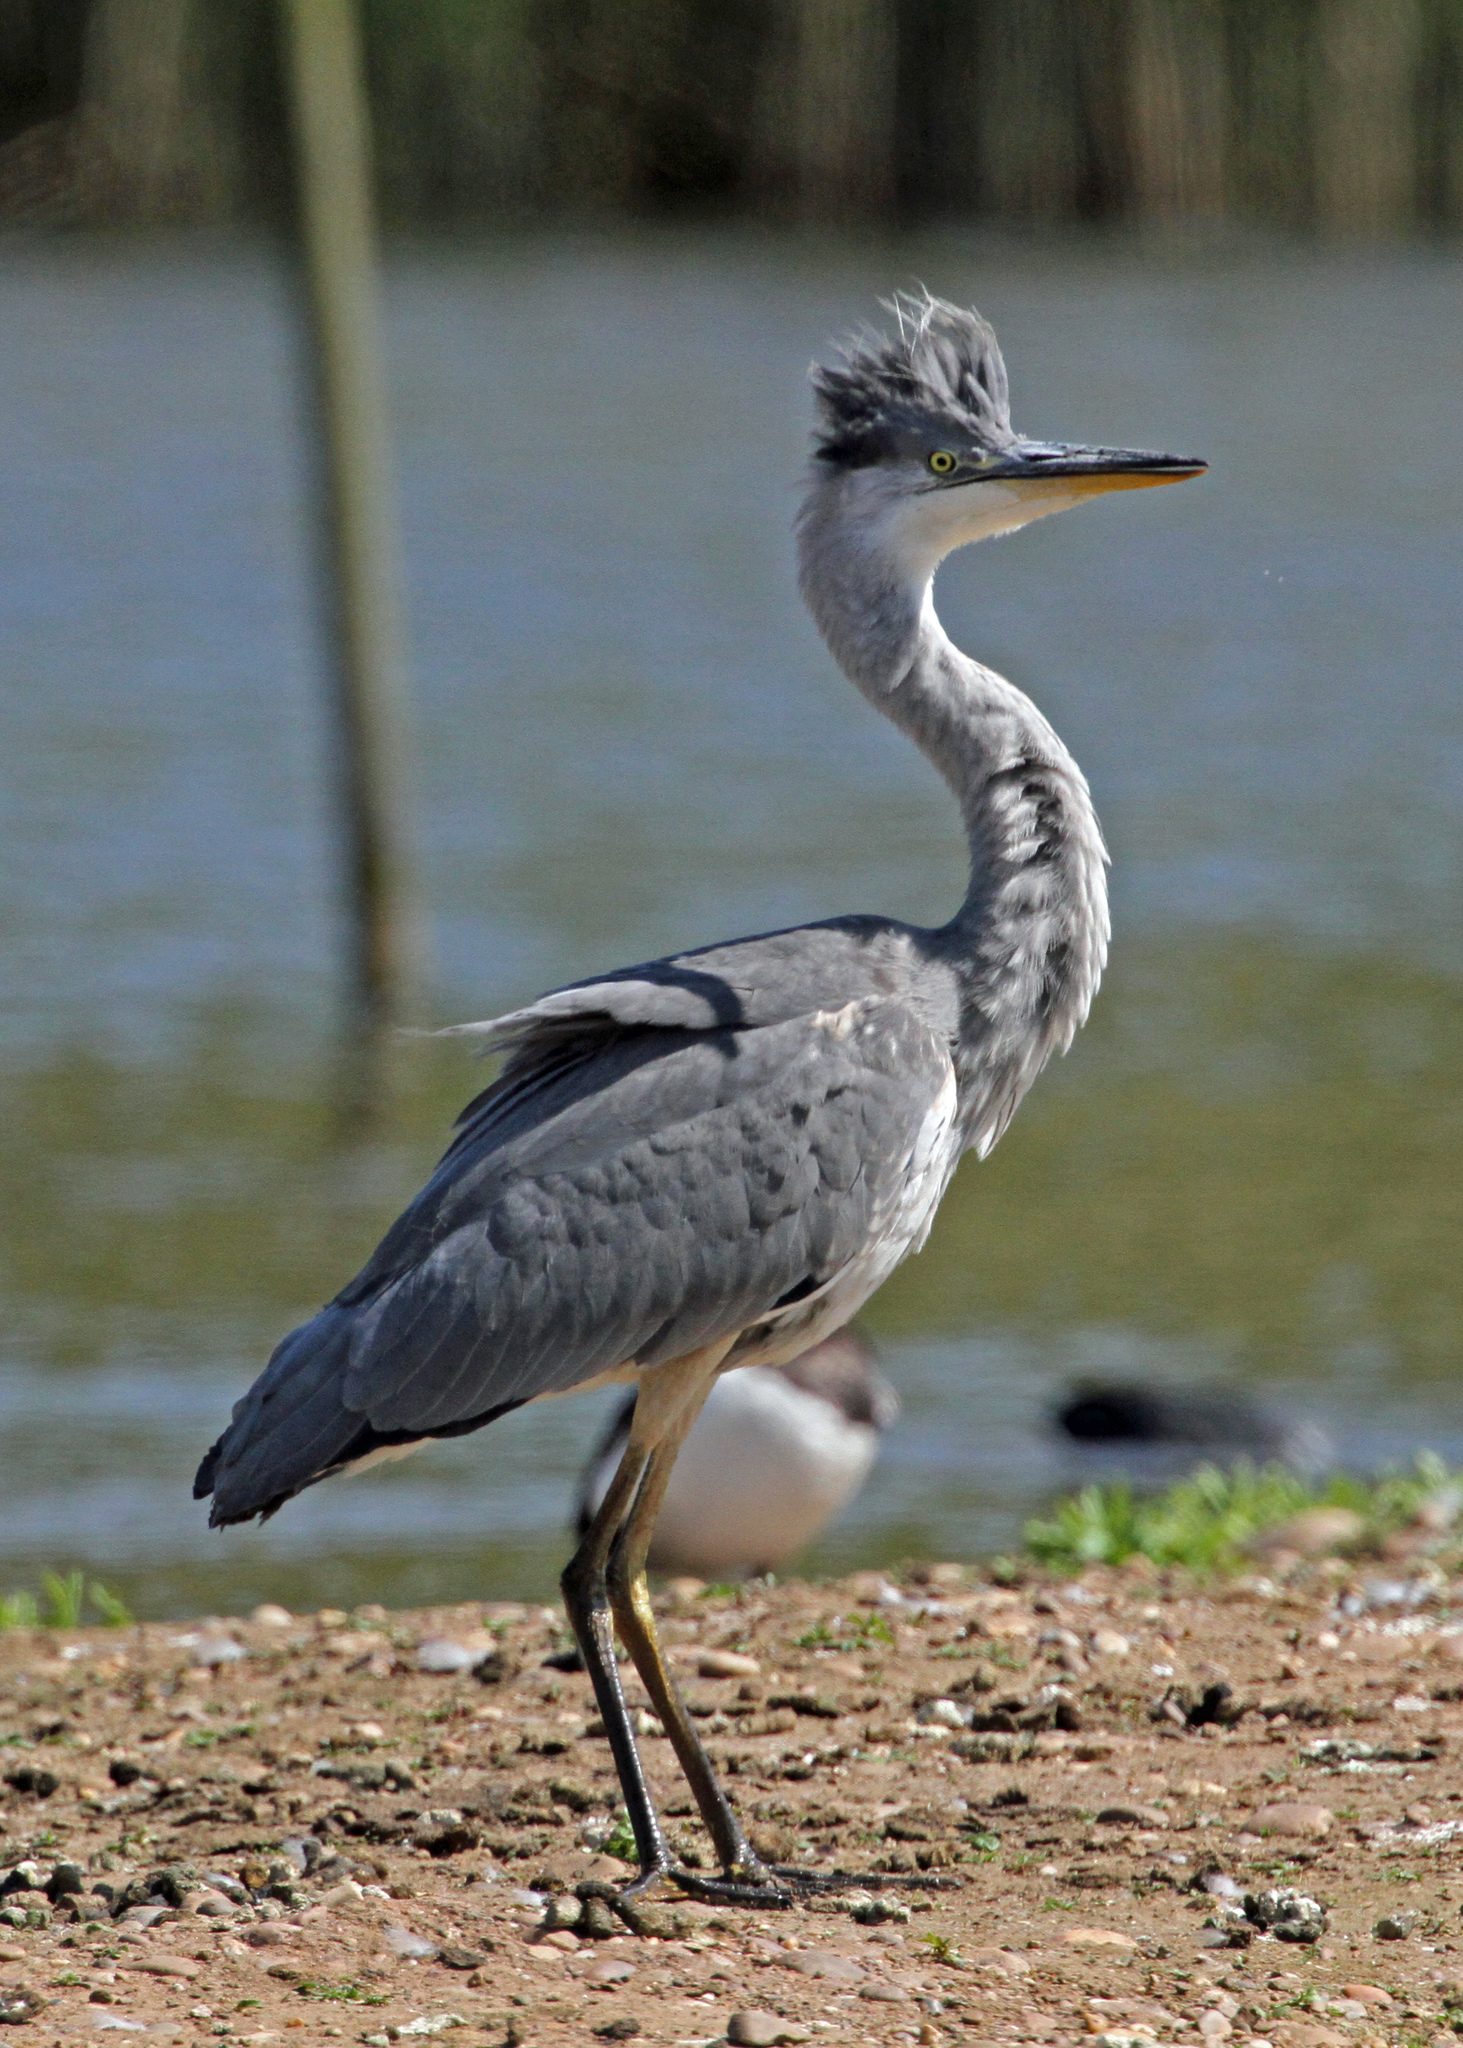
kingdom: Animalia
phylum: Chordata
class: Aves
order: Pelecaniformes
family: Ardeidae
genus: Ardea
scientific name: Ardea cinerea
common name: Grey heron
